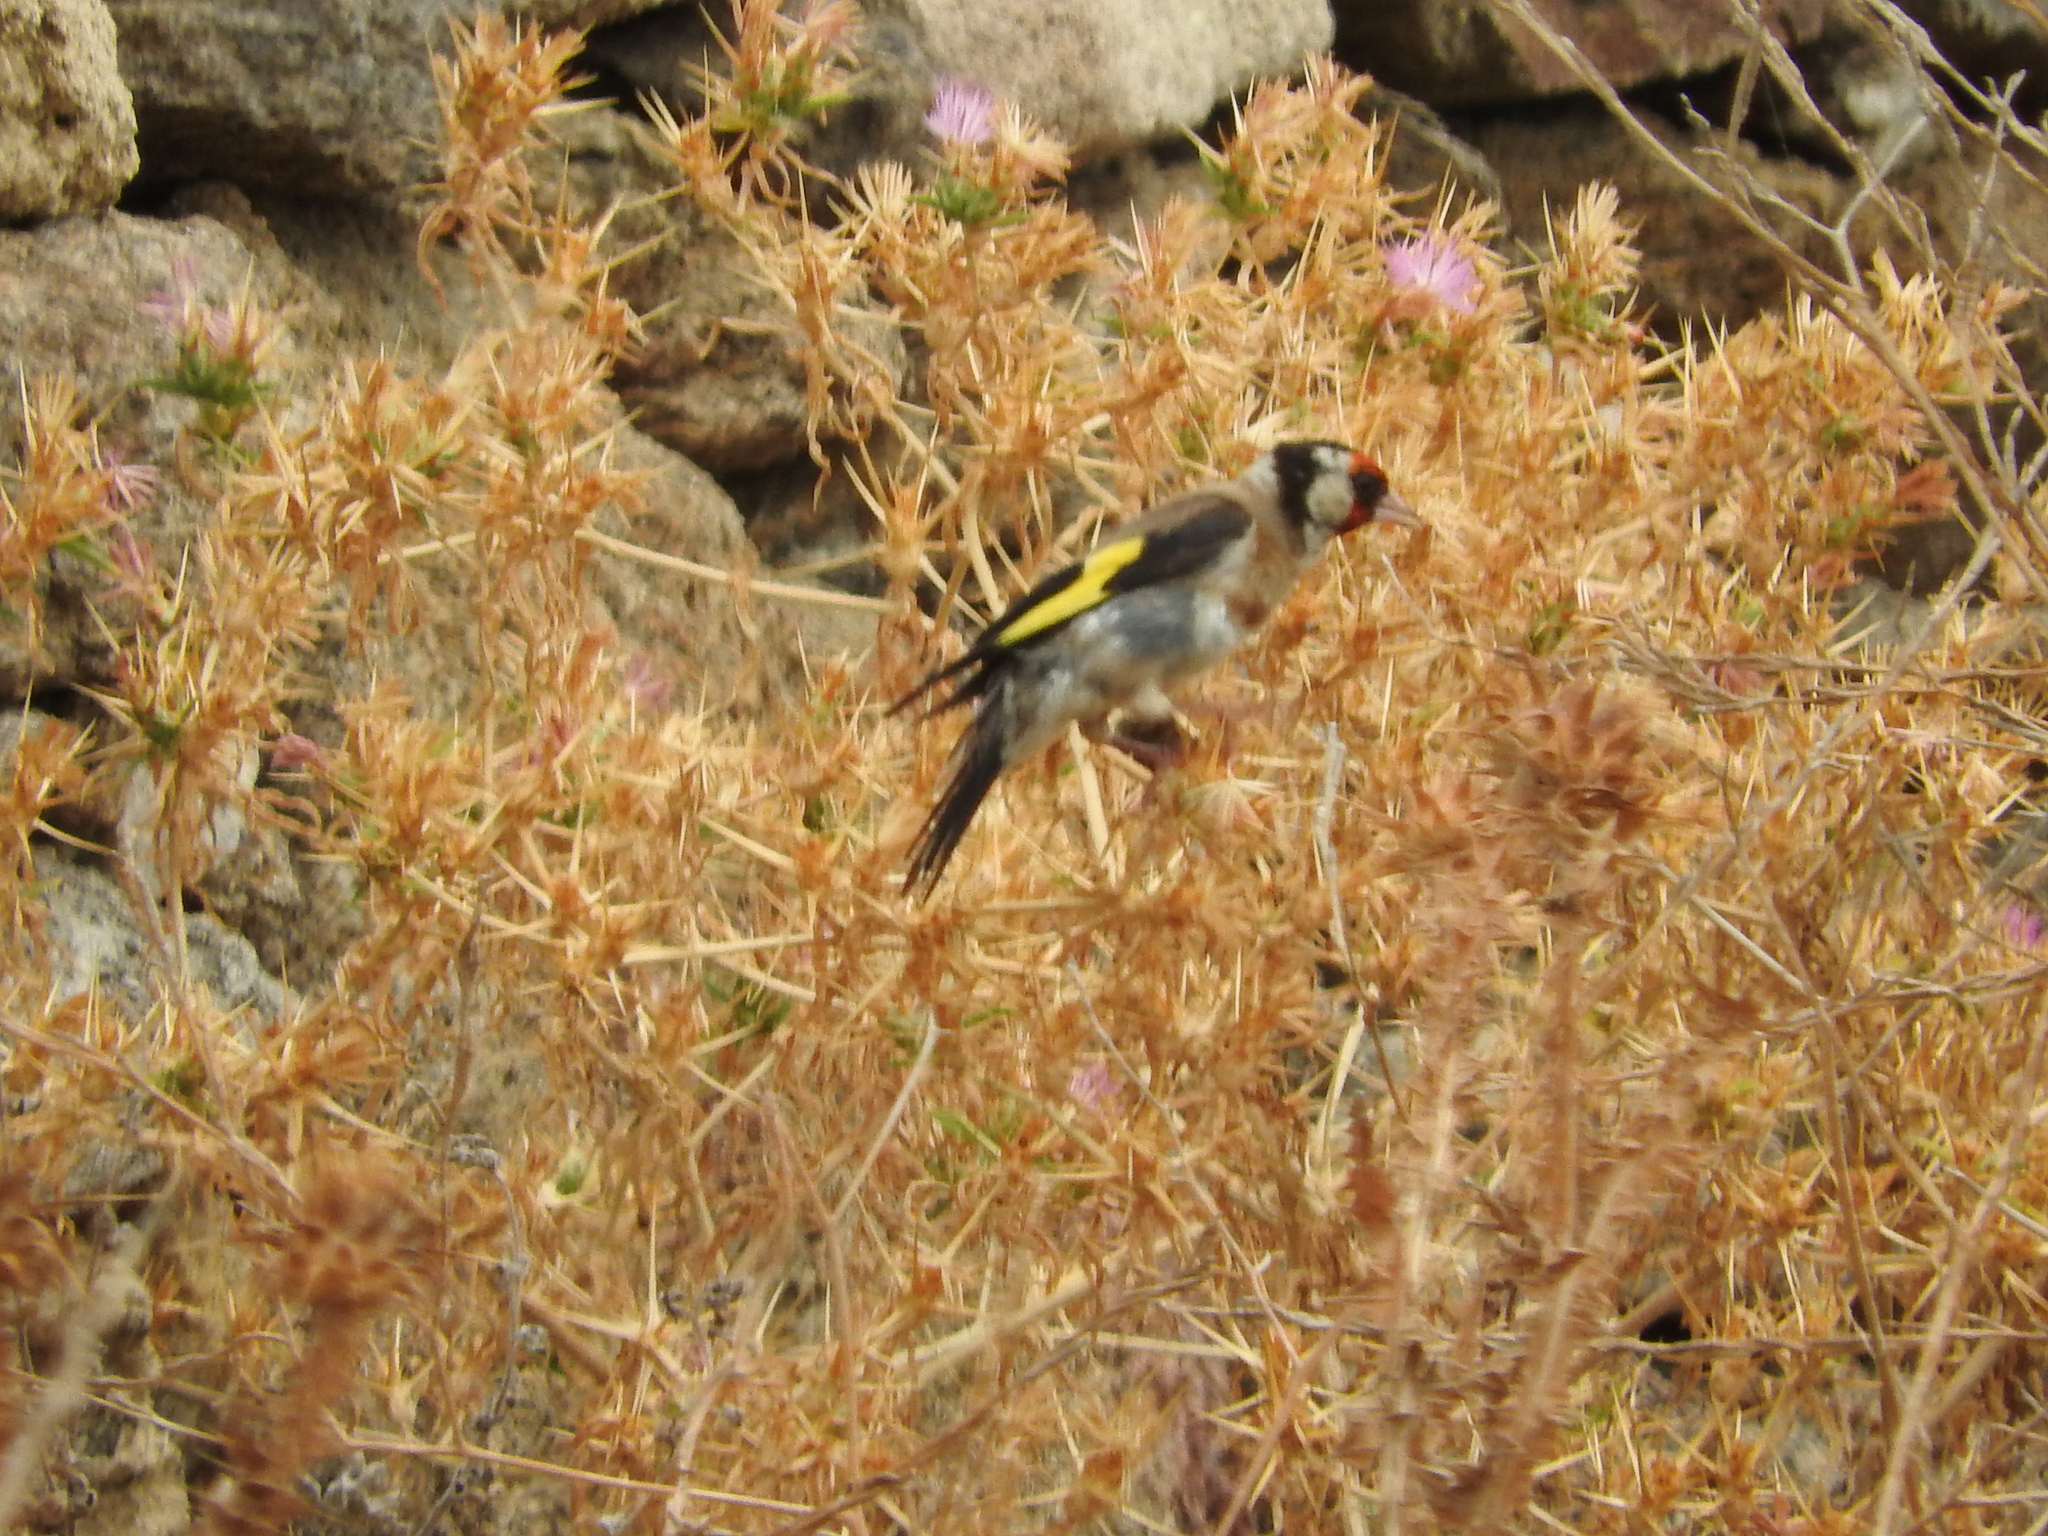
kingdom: Animalia
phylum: Chordata
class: Aves
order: Passeriformes
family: Fringillidae
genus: Carduelis
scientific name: Carduelis carduelis
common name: European goldfinch
